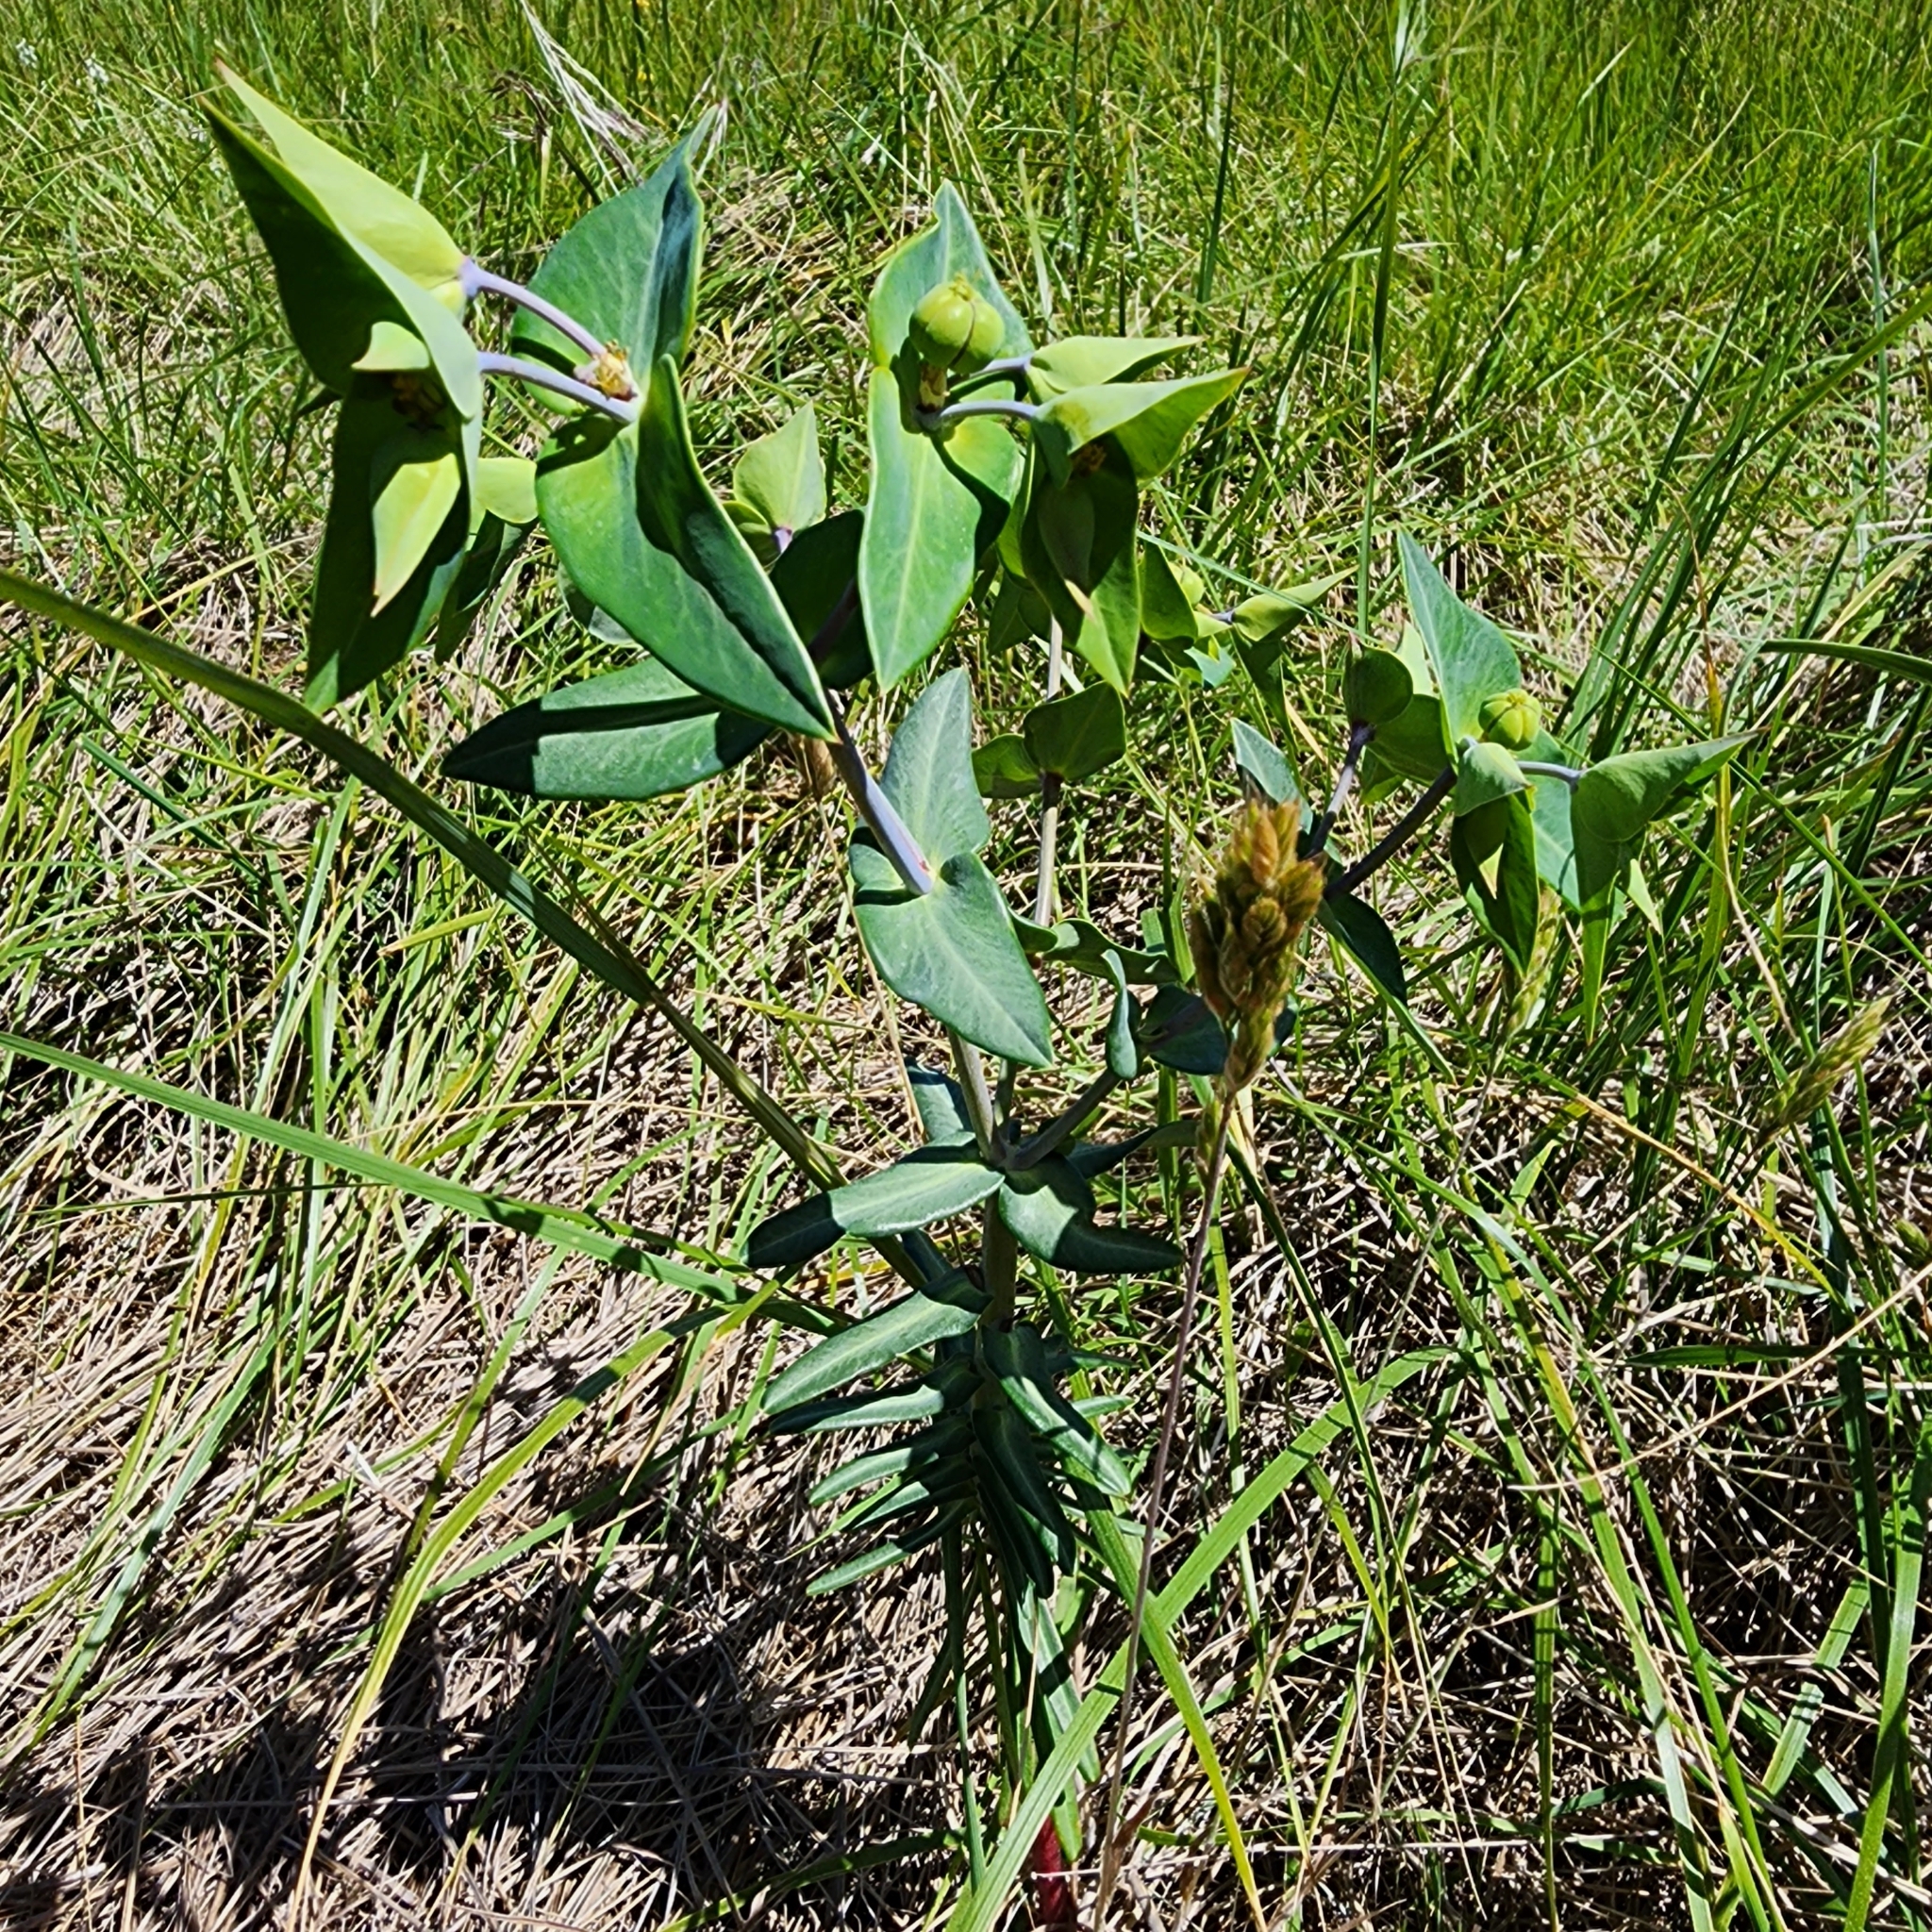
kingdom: Plantae
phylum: Tracheophyta
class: Magnoliopsida
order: Malpighiales
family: Euphorbiaceae
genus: Euphorbia
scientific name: Euphorbia lathyris
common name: Caper spurge
